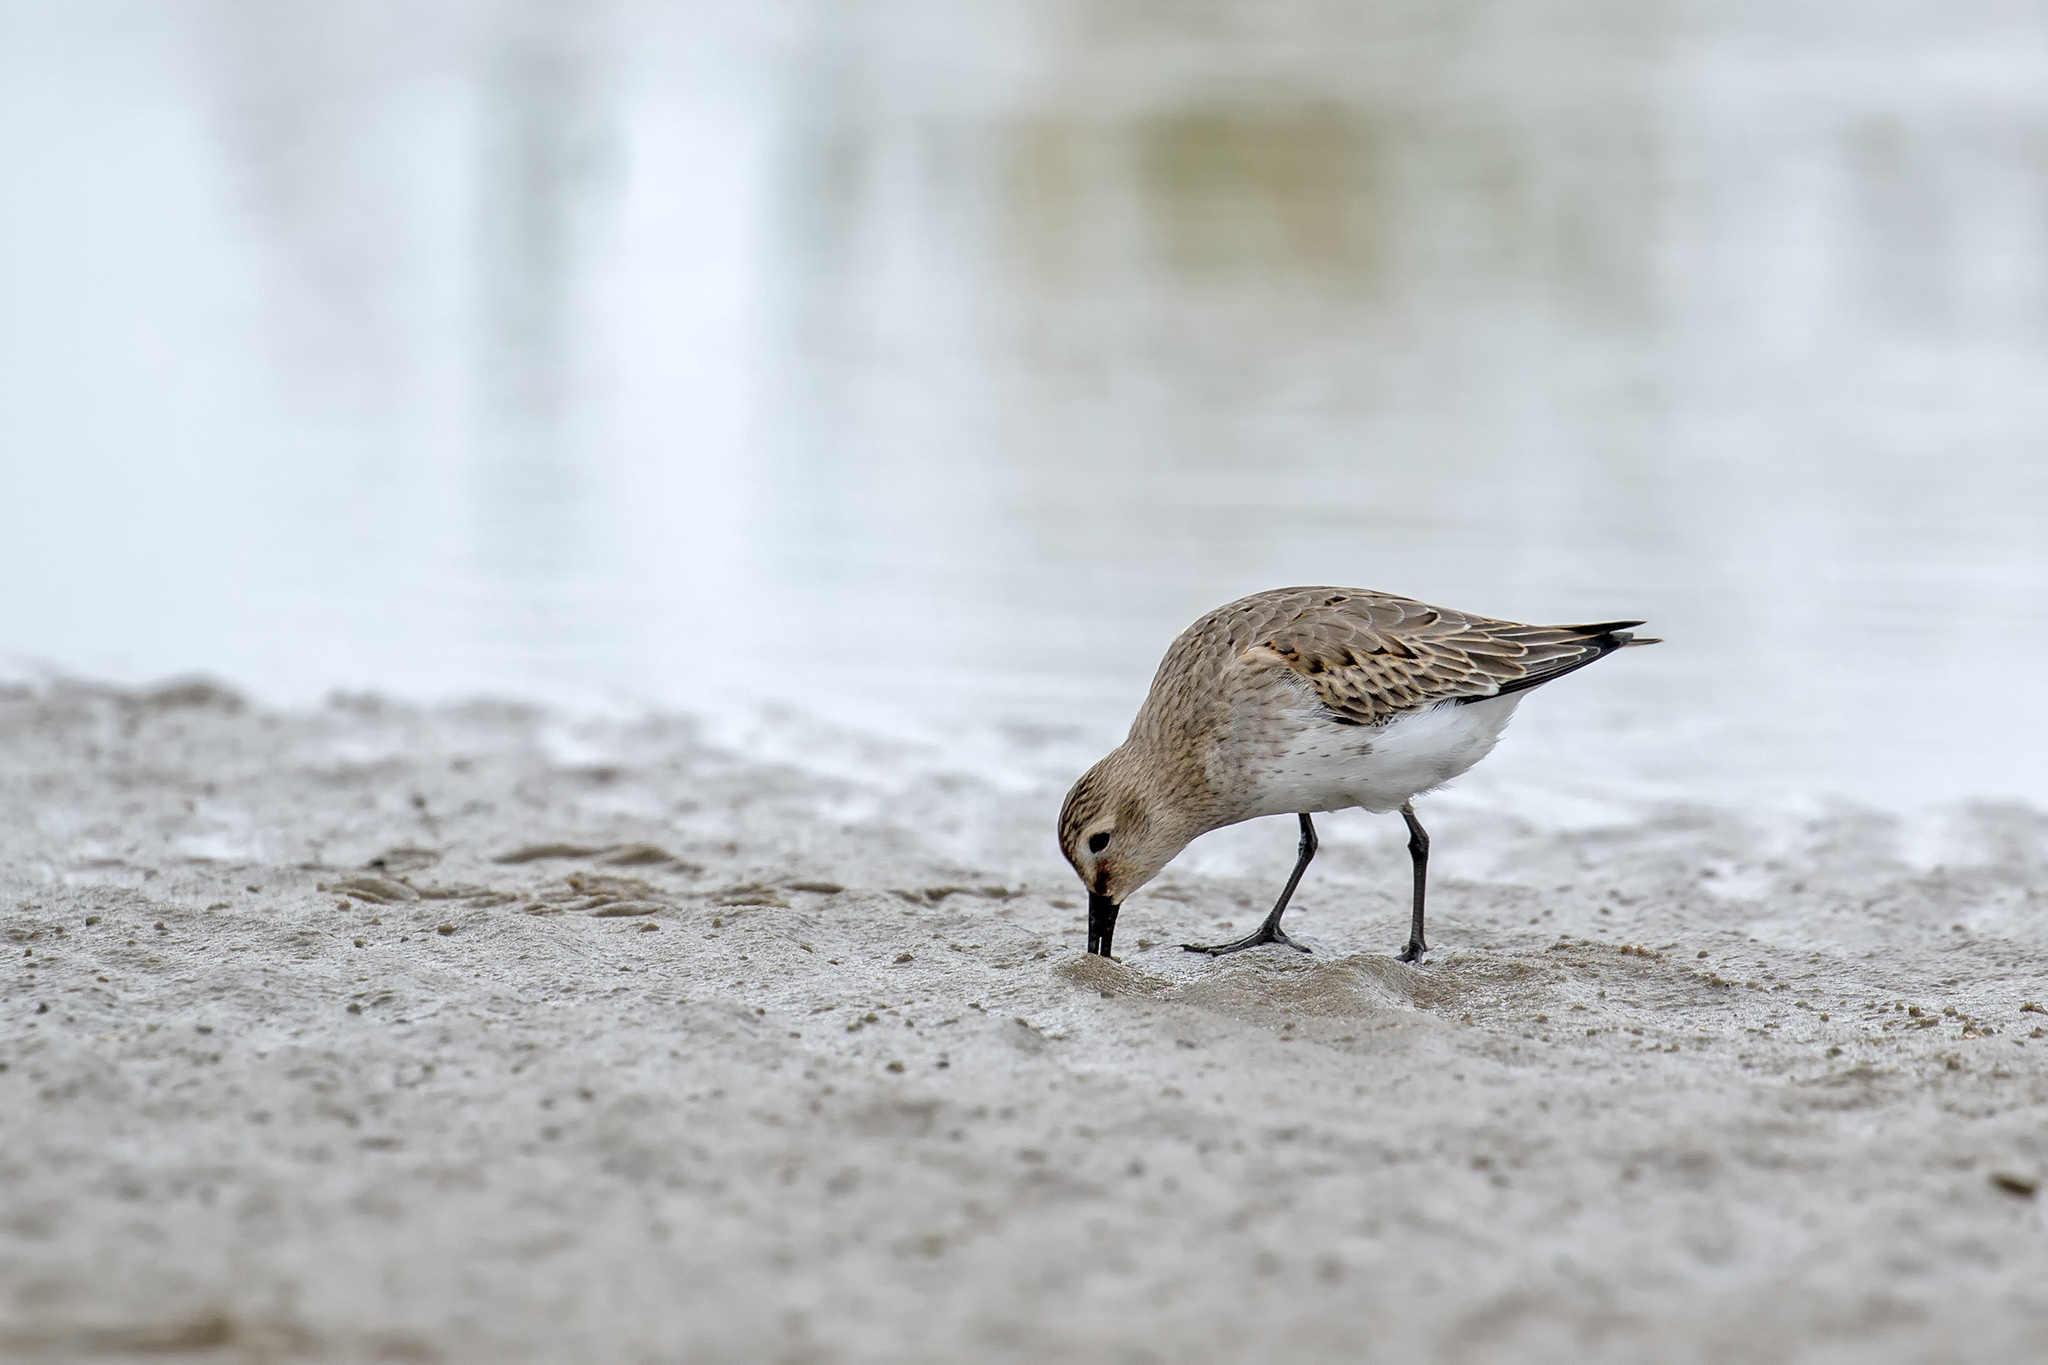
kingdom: Animalia
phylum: Chordata
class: Aves
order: Charadriiformes
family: Scolopacidae
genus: Calidris
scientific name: Calidris alpina
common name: Dunlin
